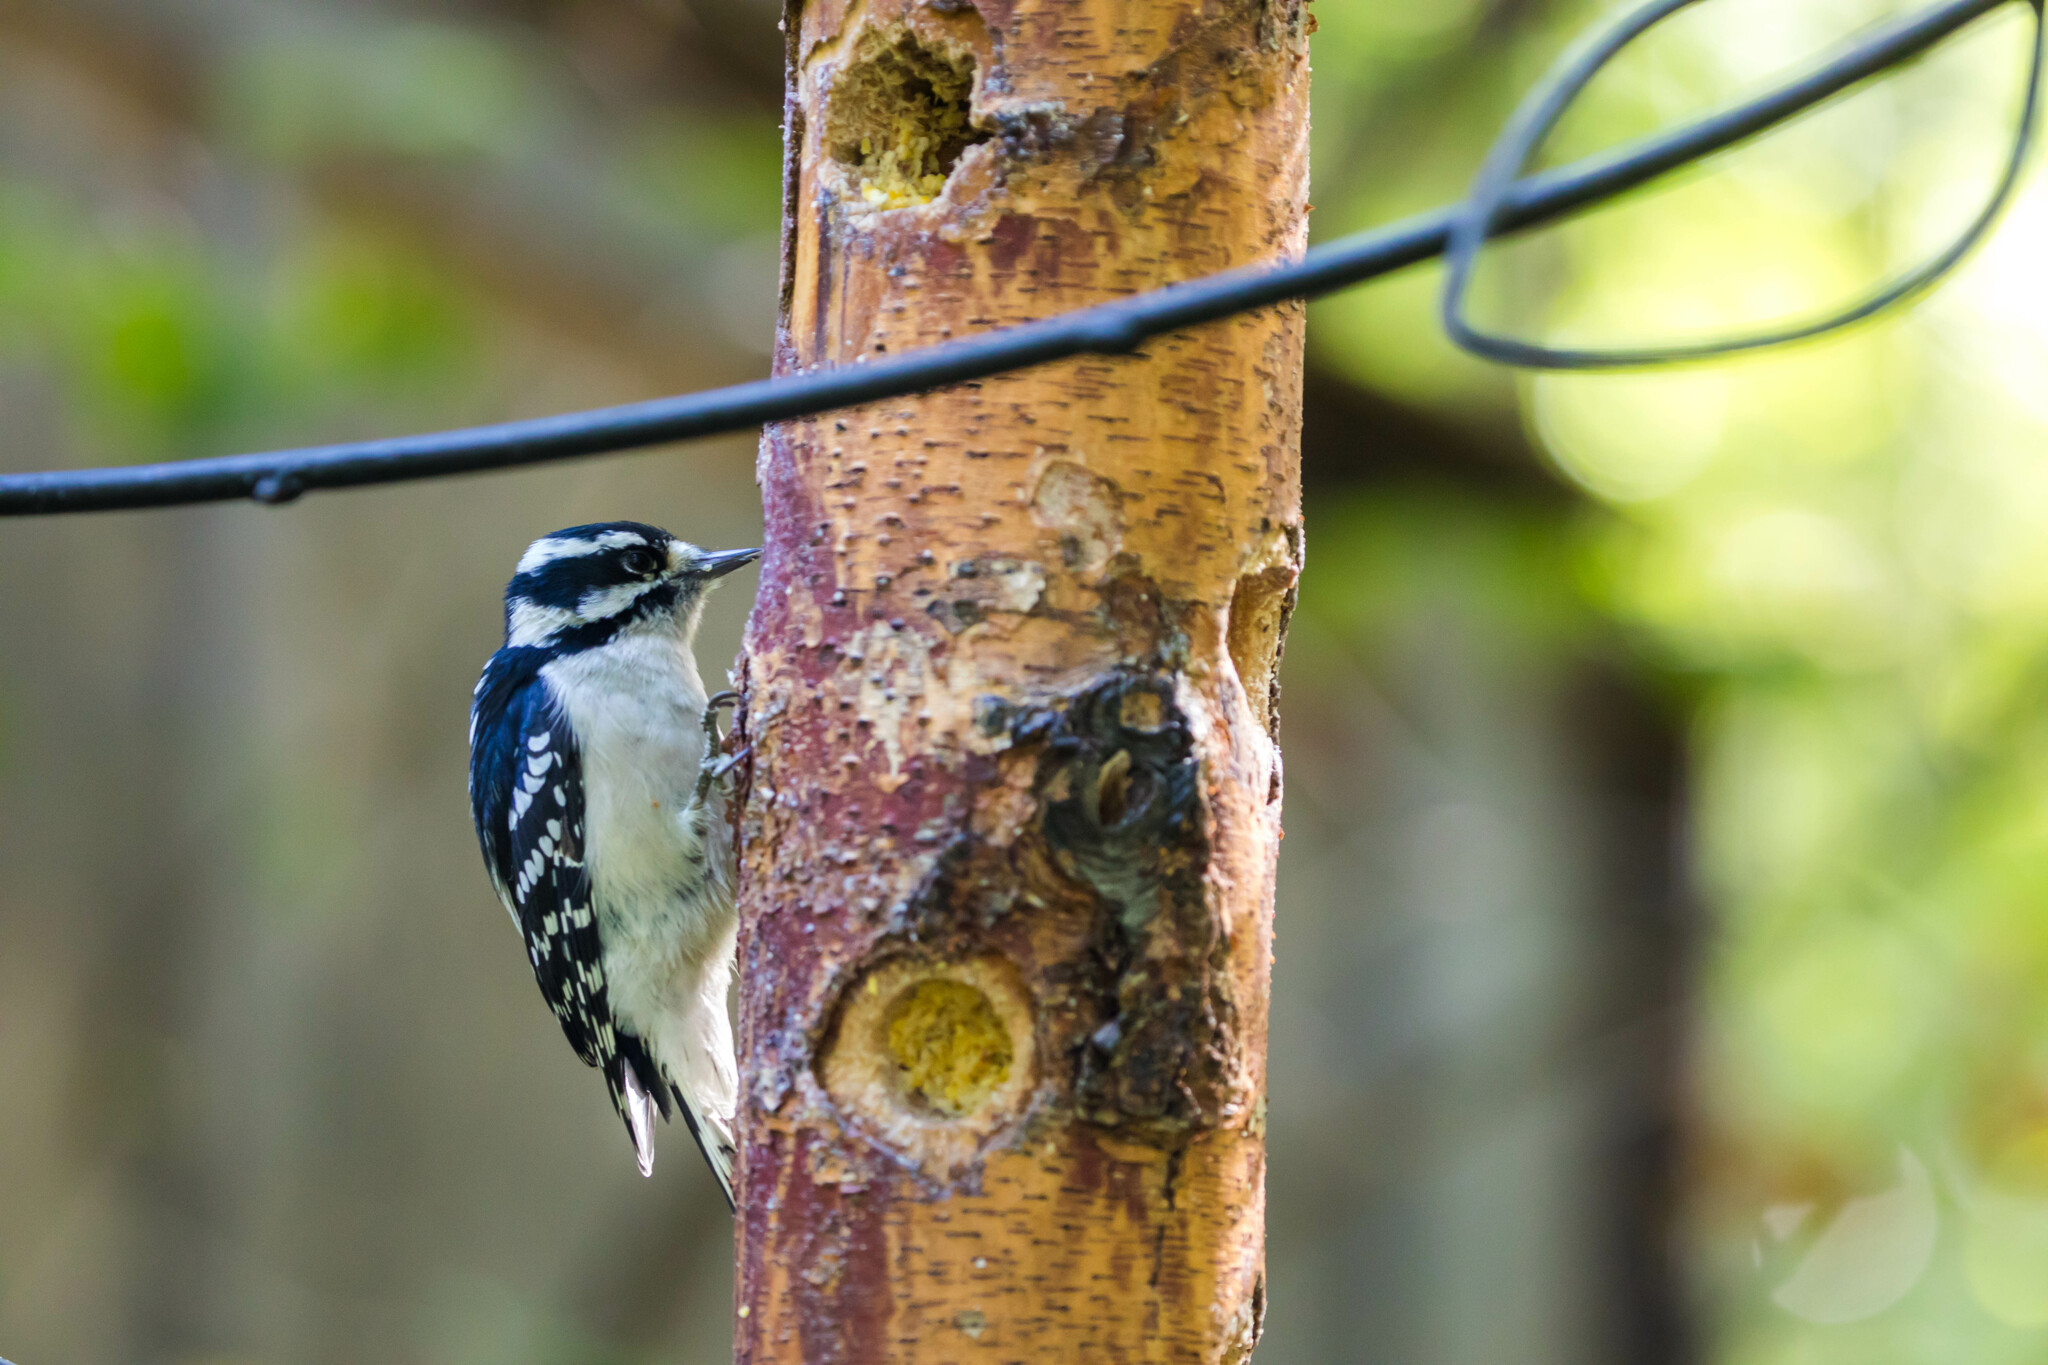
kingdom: Animalia
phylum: Chordata
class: Aves
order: Piciformes
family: Picidae
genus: Dryobates
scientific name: Dryobates pubescens
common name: Downy woodpecker
